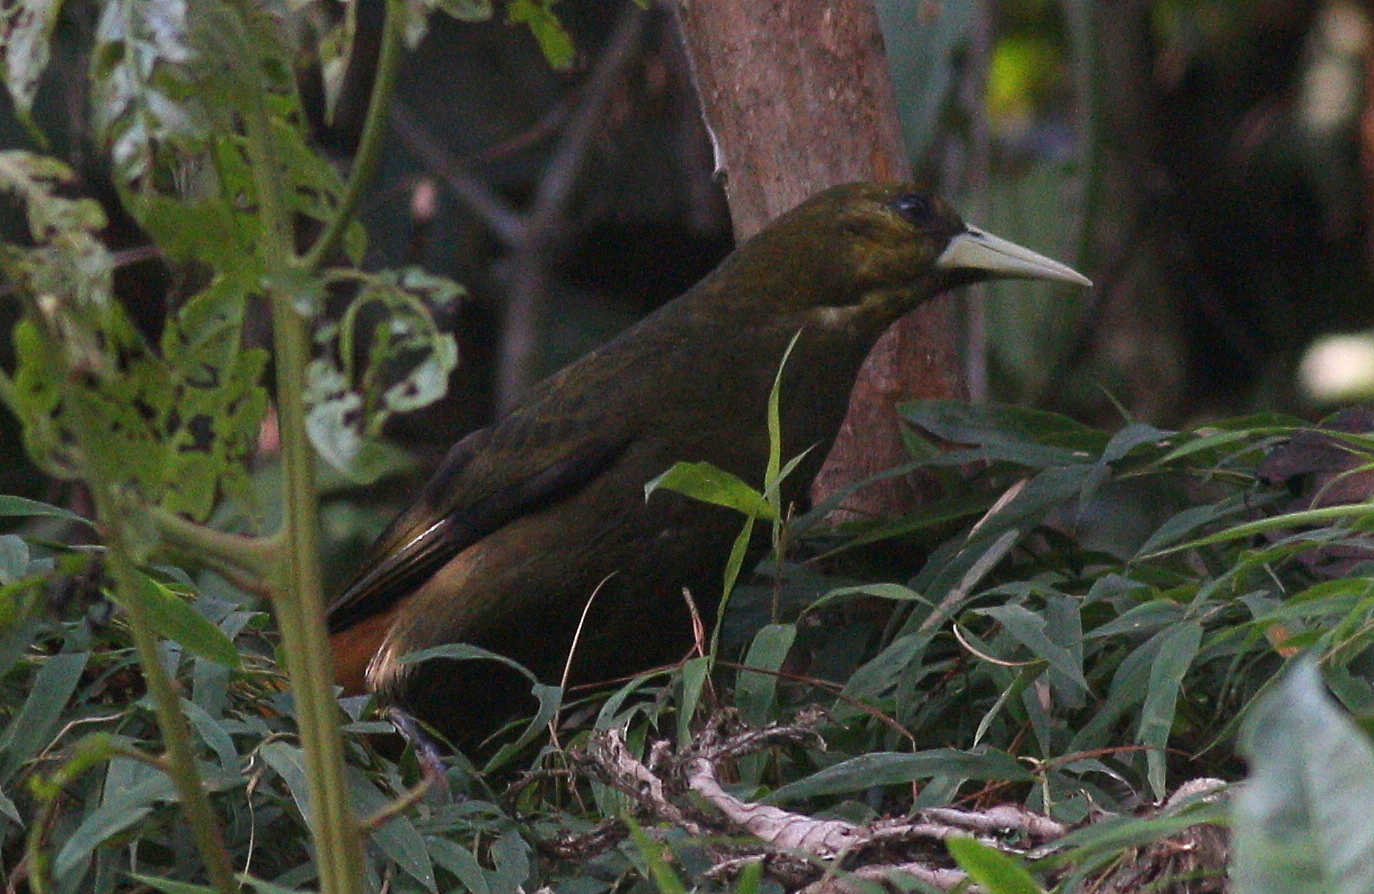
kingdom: Animalia
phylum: Chordata
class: Aves
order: Passeriformes
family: Icteridae
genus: Psarocolius
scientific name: Psarocolius atrovirens
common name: Dusky-green oropendola
